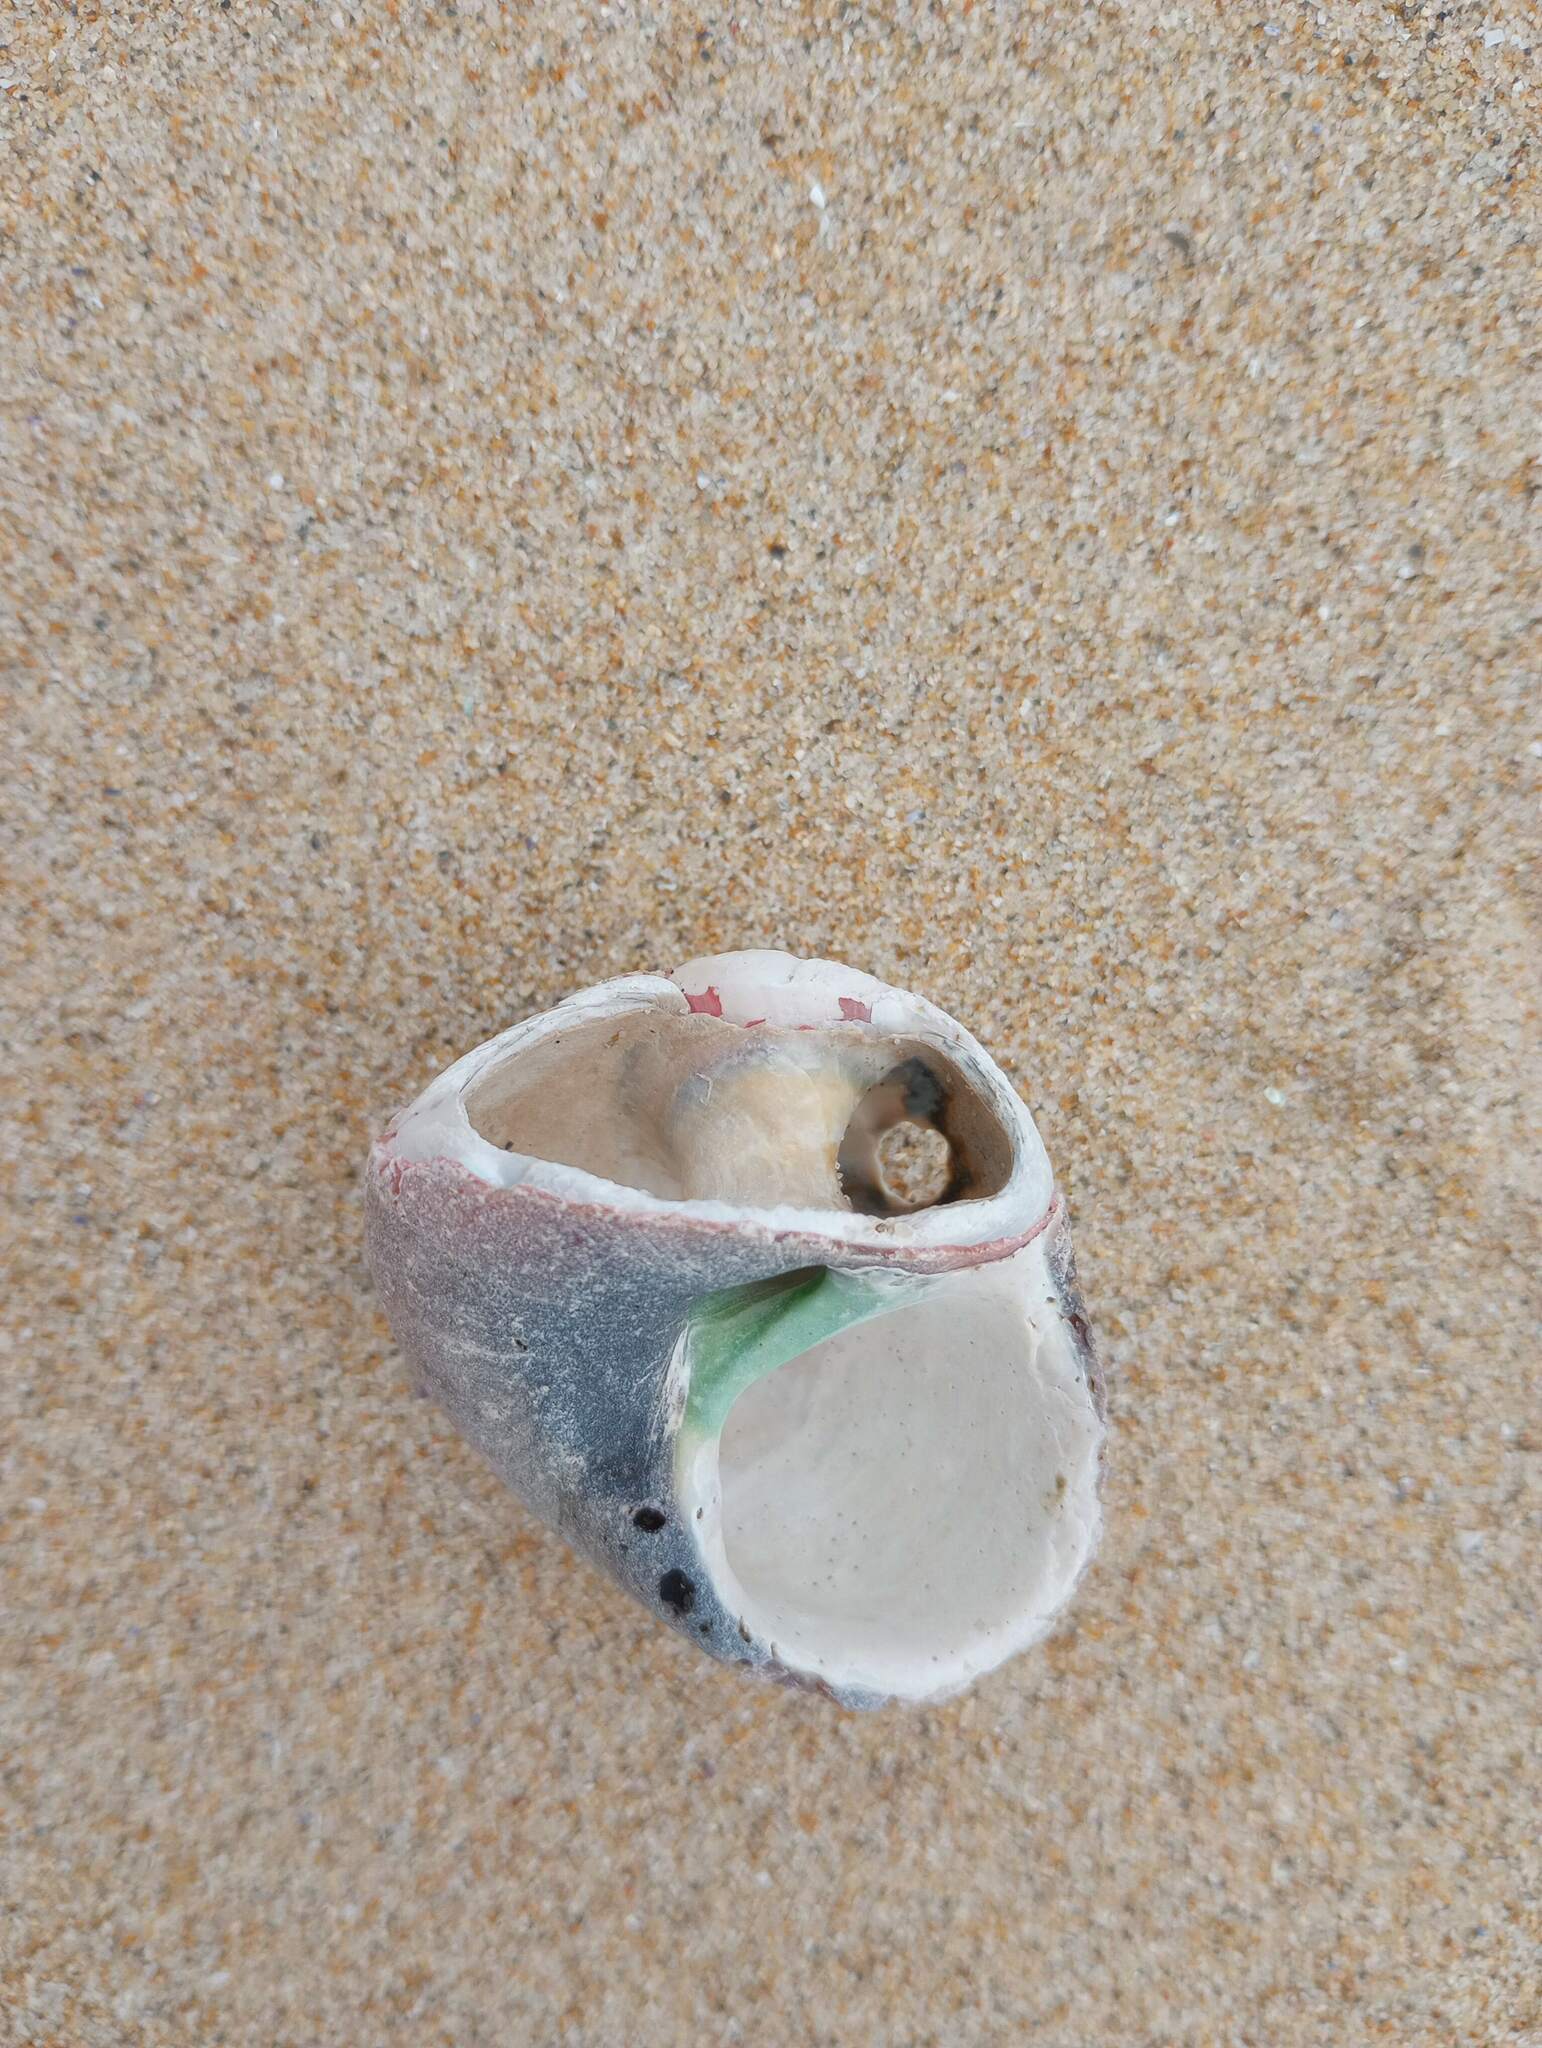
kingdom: Animalia
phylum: Mollusca
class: Gastropoda
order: Trochida
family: Tegulidae
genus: Norrisia
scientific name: Norrisia norrisii
